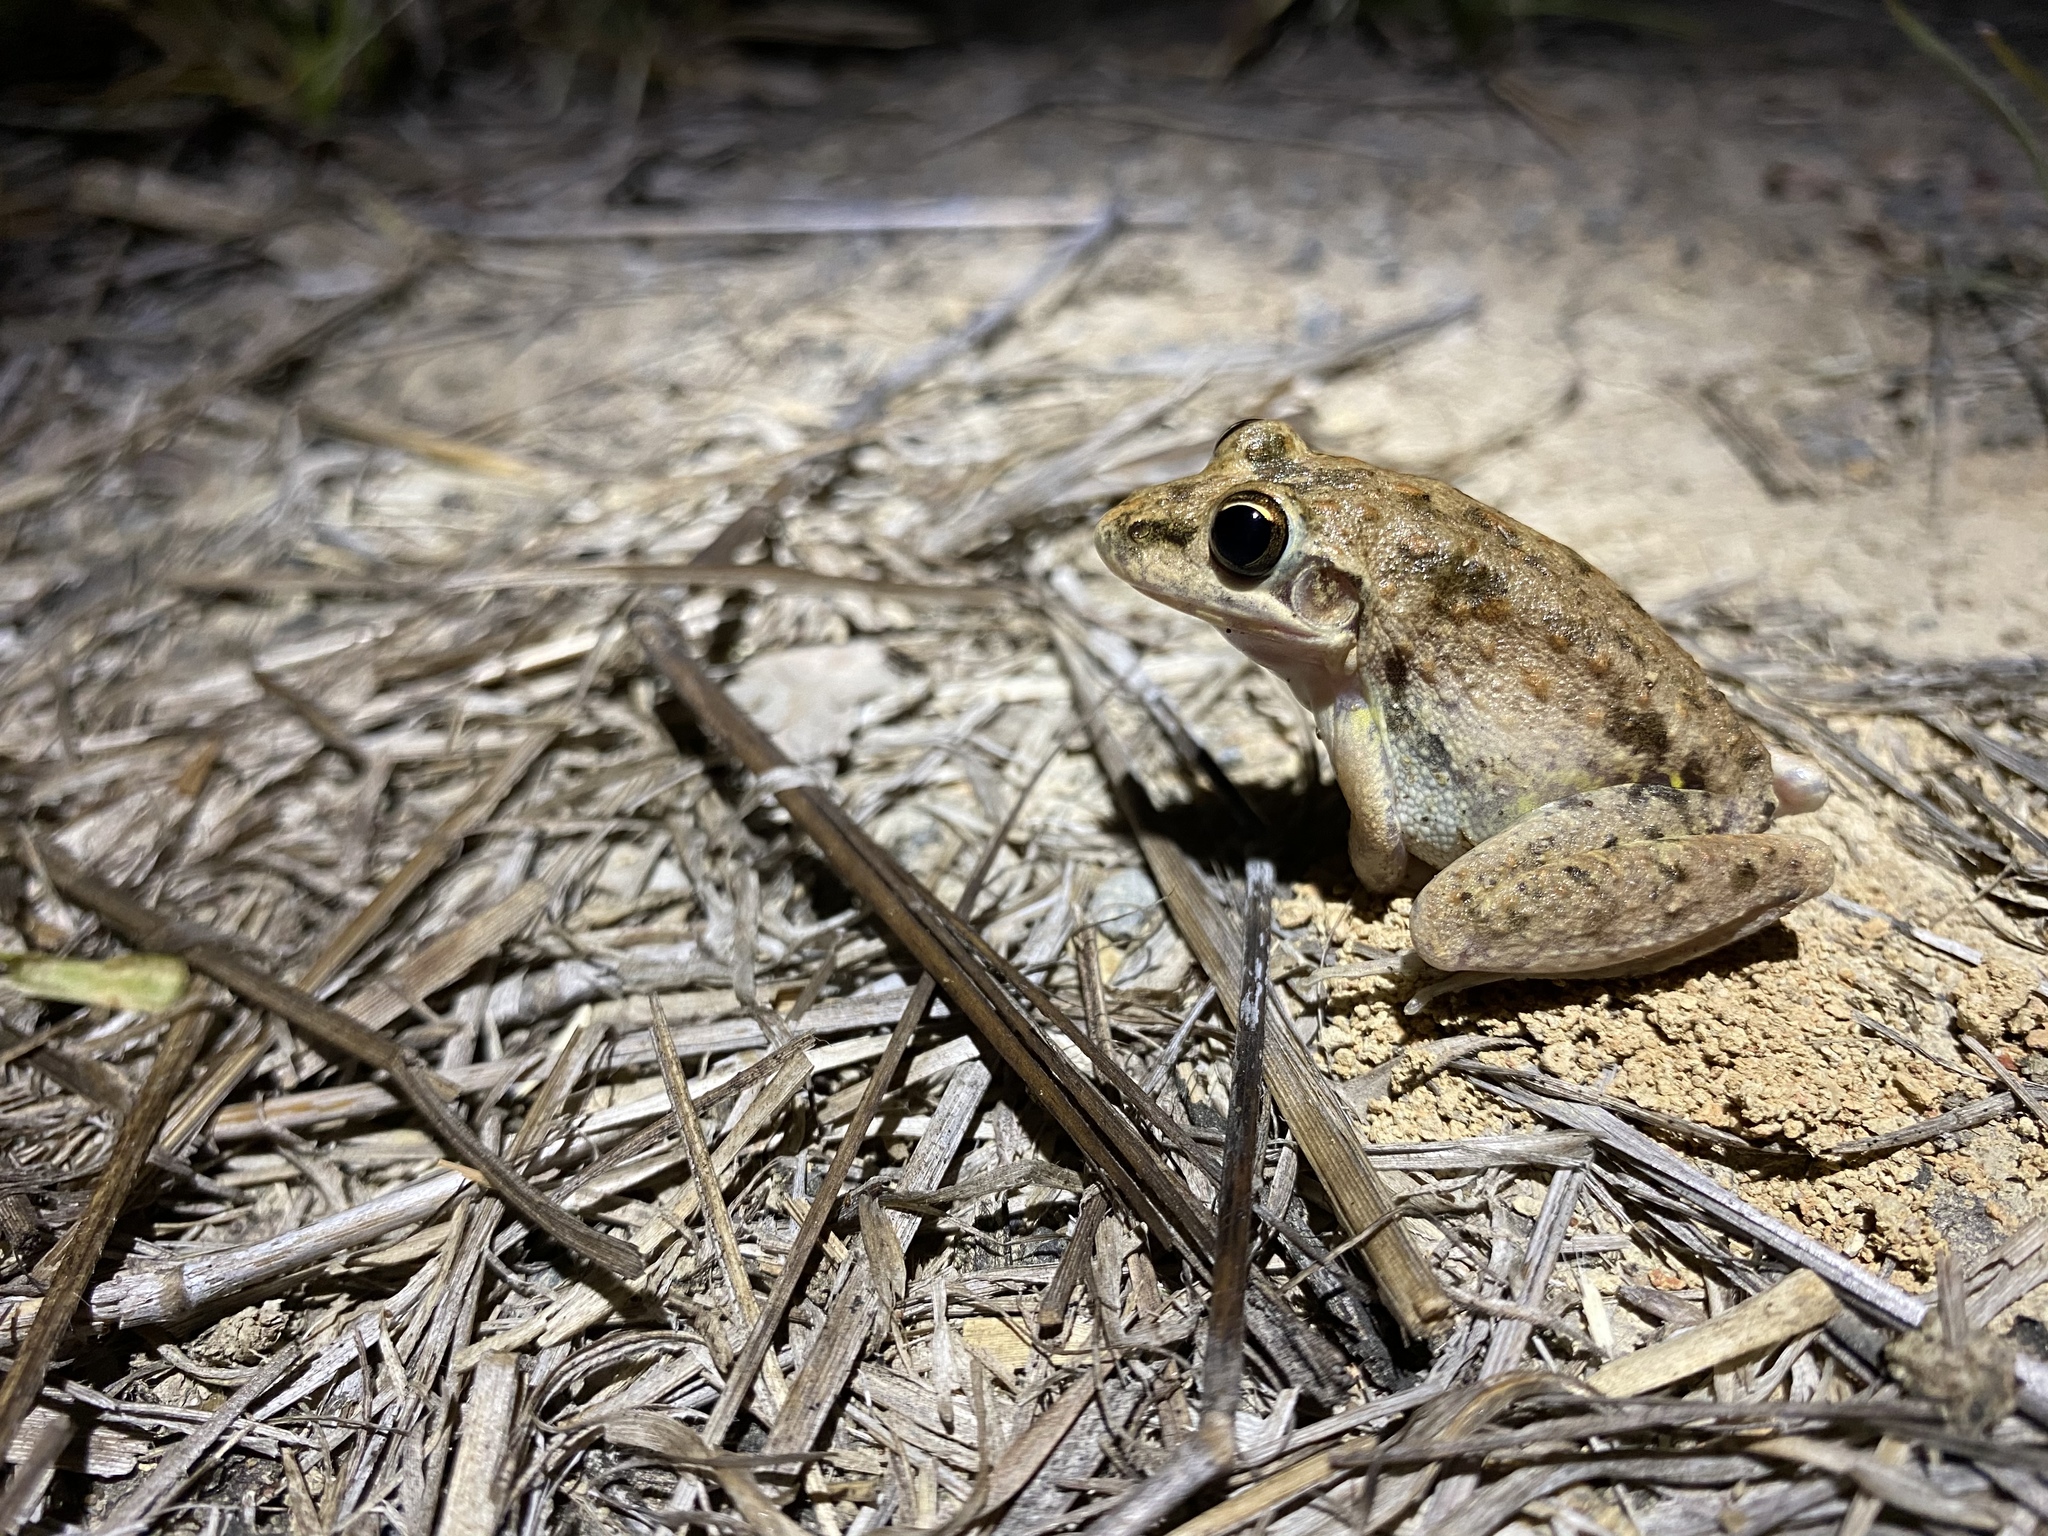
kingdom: Animalia
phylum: Chordata
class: Amphibia
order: Anura
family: Pelodryadidae
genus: Litoria
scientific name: Litoria inermis
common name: Bumpy rocket frog
